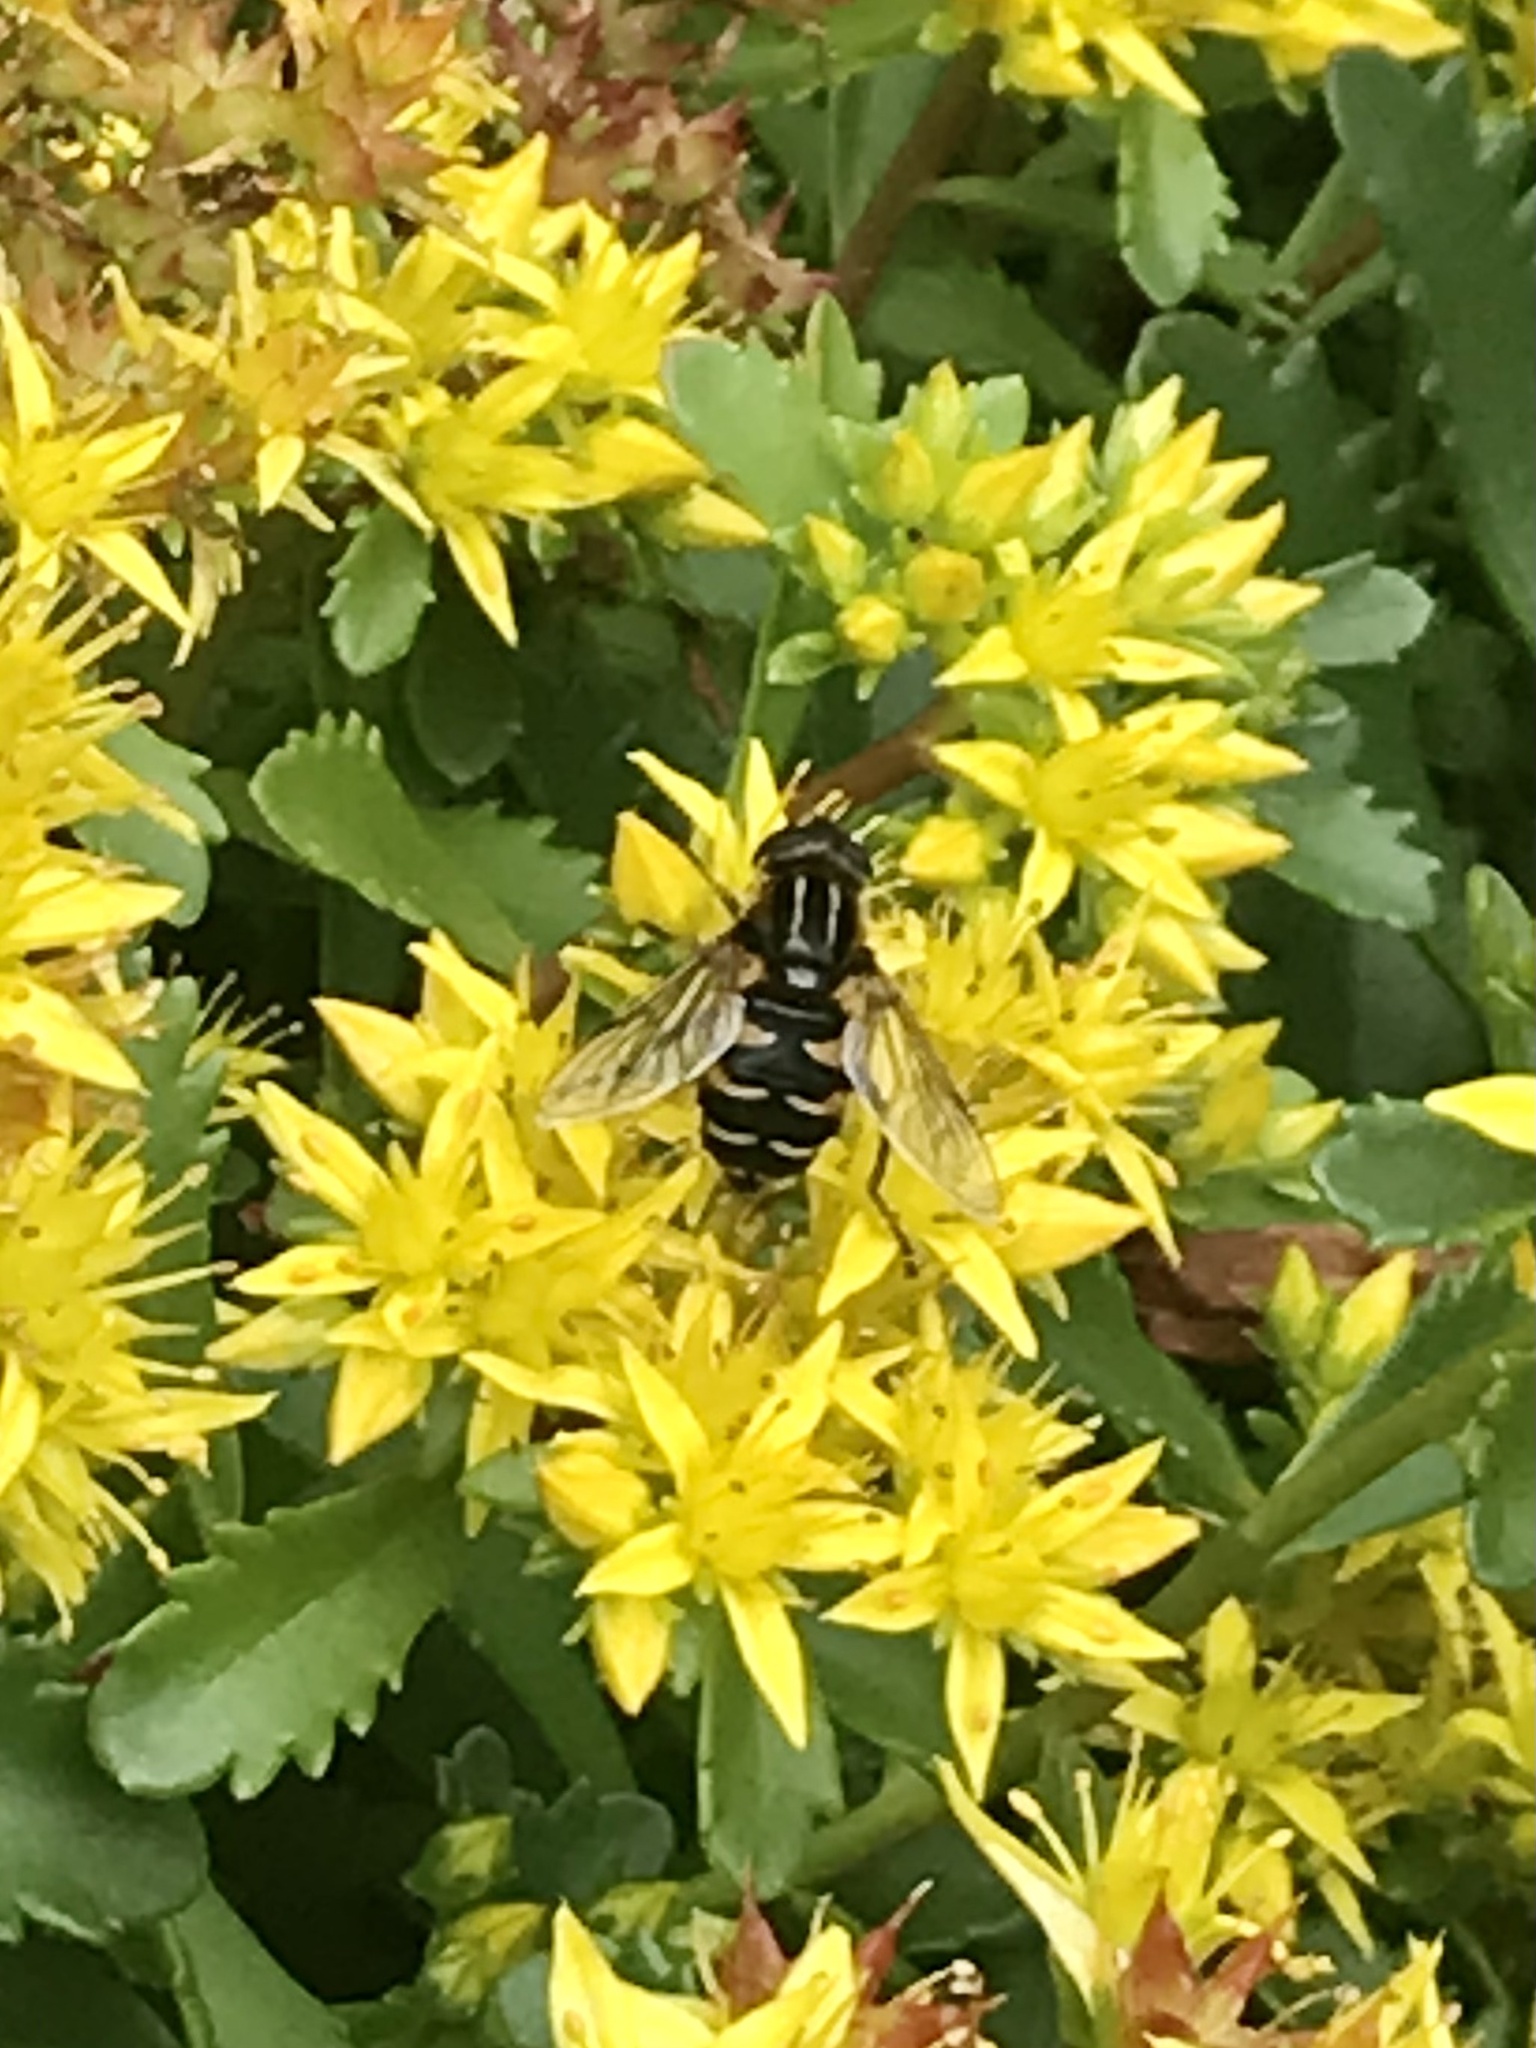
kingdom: Animalia
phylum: Arthropoda
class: Insecta
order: Diptera
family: Syrphidae
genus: Helophilus
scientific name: Helophilus groenlandicus
